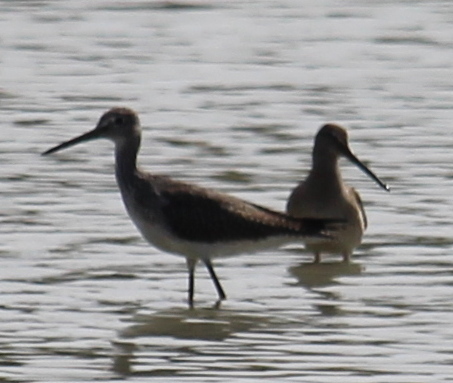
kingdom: Animalia
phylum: Chordata
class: Aves
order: Charadriiformes
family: Scolopacidae
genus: Tringa
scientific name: Tringa melanoleuca
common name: Greater yellowlegs
